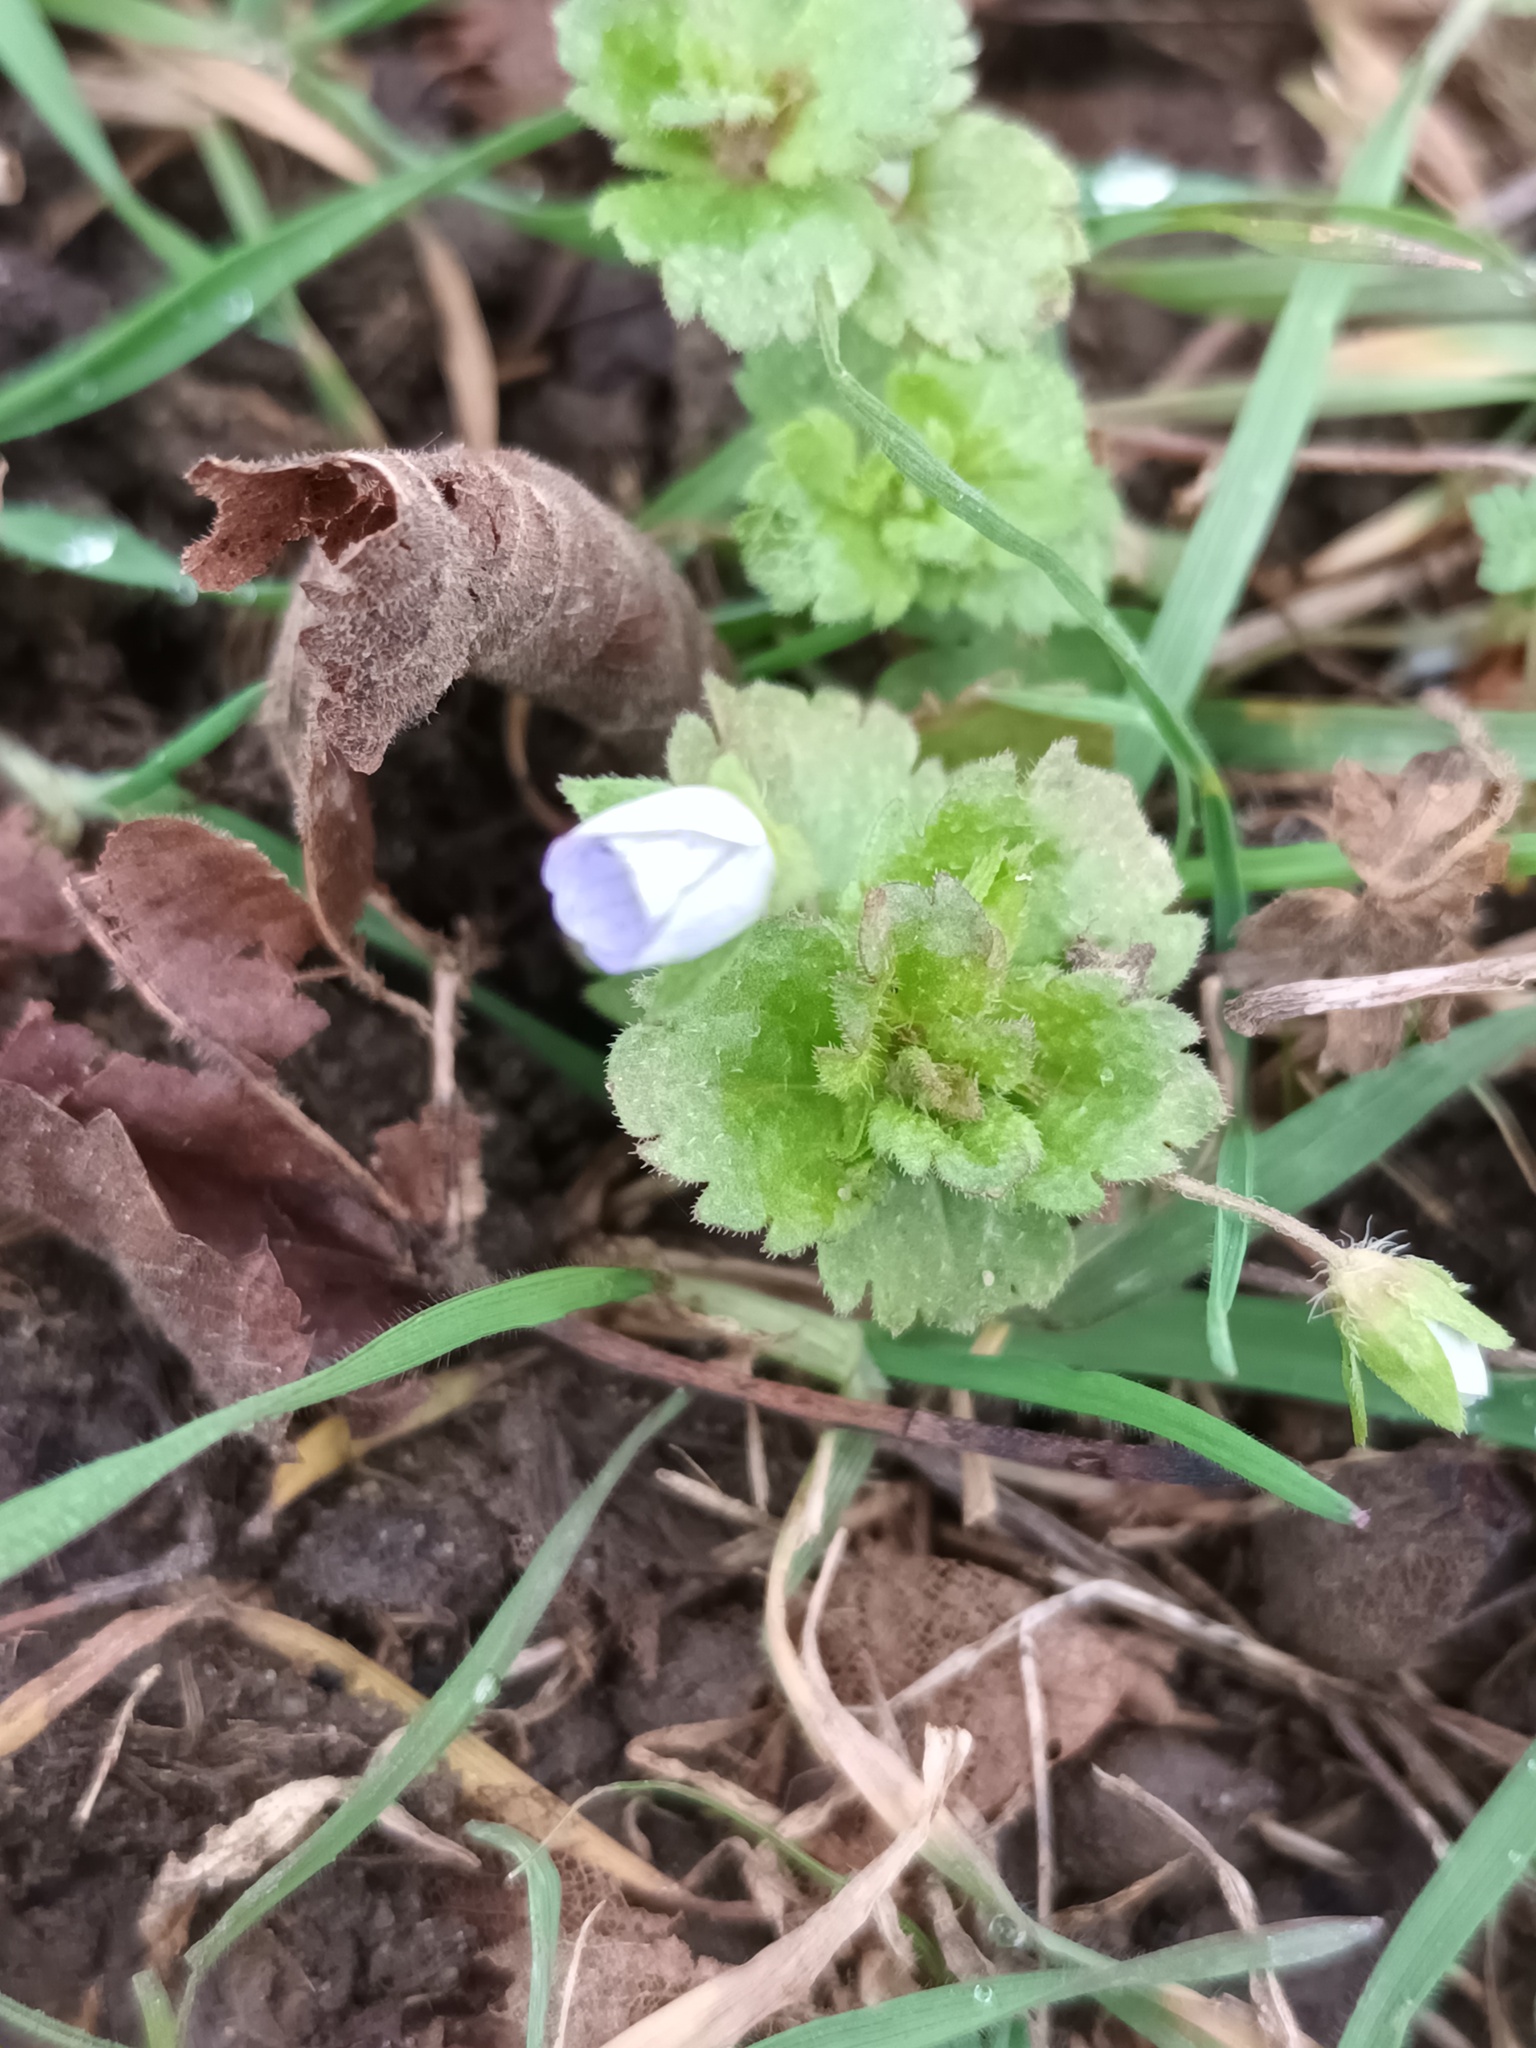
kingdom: Plantae
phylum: Tracheophyta
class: Magnoliopsida
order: Lamiales
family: Plantaginaceae
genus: Veronica
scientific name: Veronica persica
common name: Common field-speedwell
